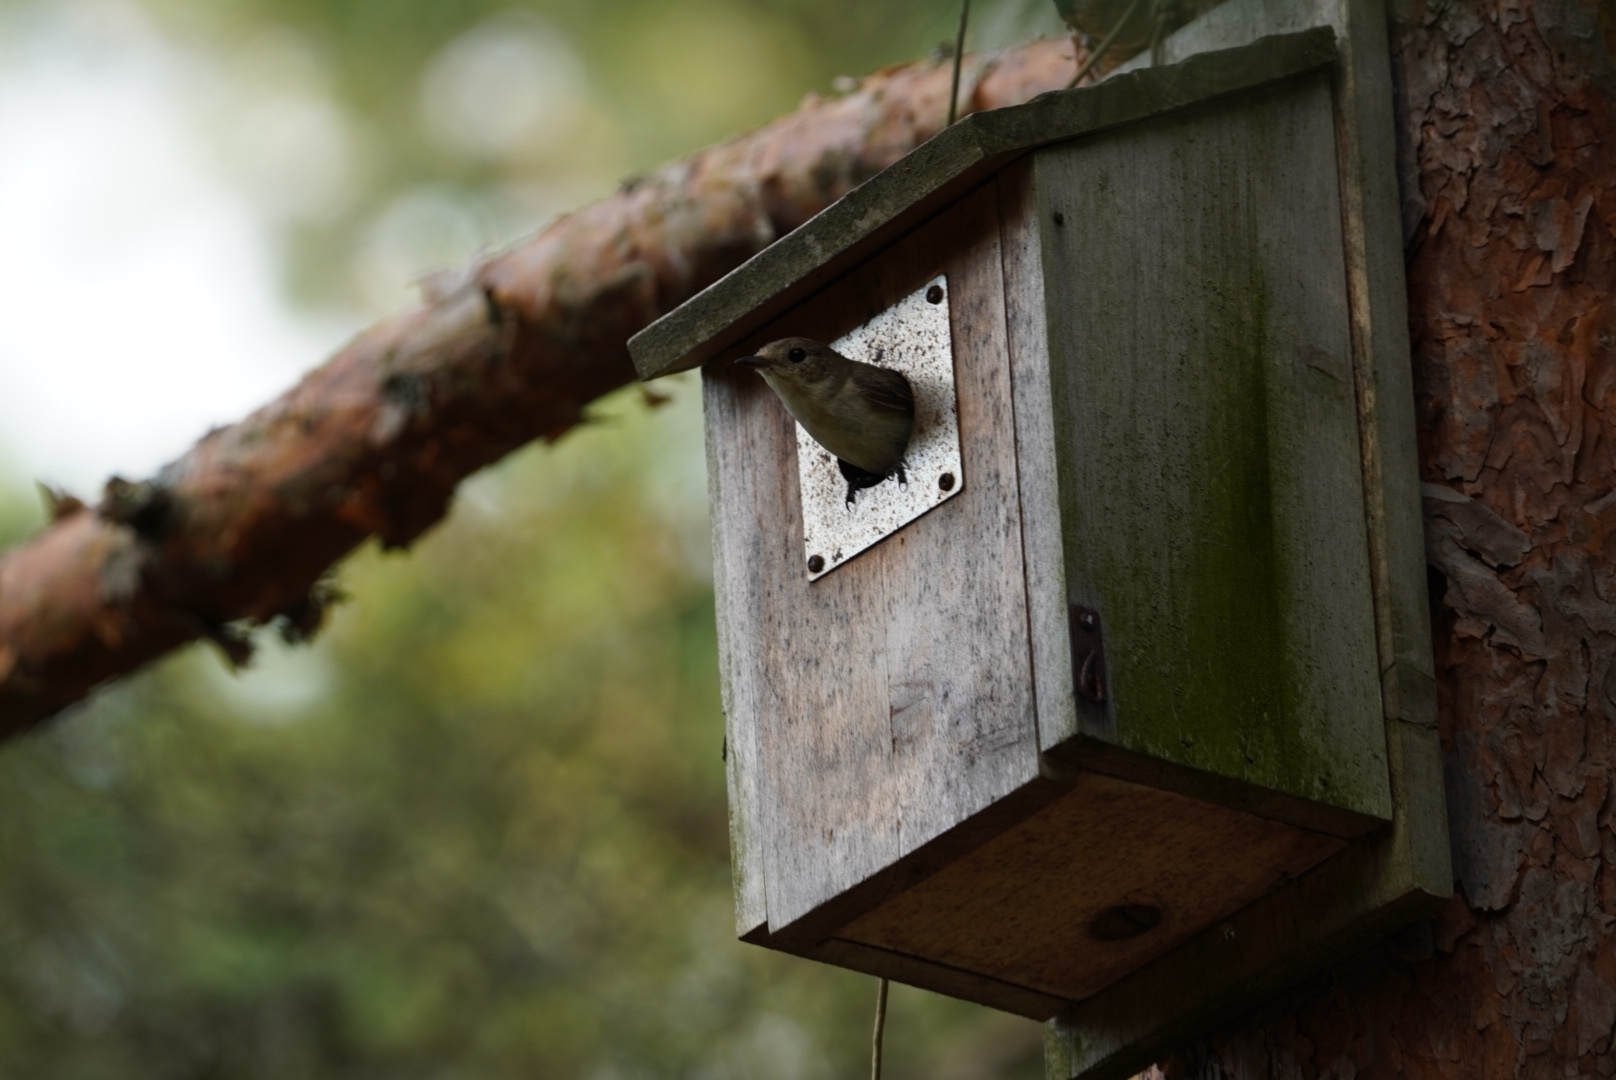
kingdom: Animalia
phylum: Chordata
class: Aves
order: Passeriformes
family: Muscicapidae
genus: Ficedula
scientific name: Ficedula hypoleuca
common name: European pied flycatcher
